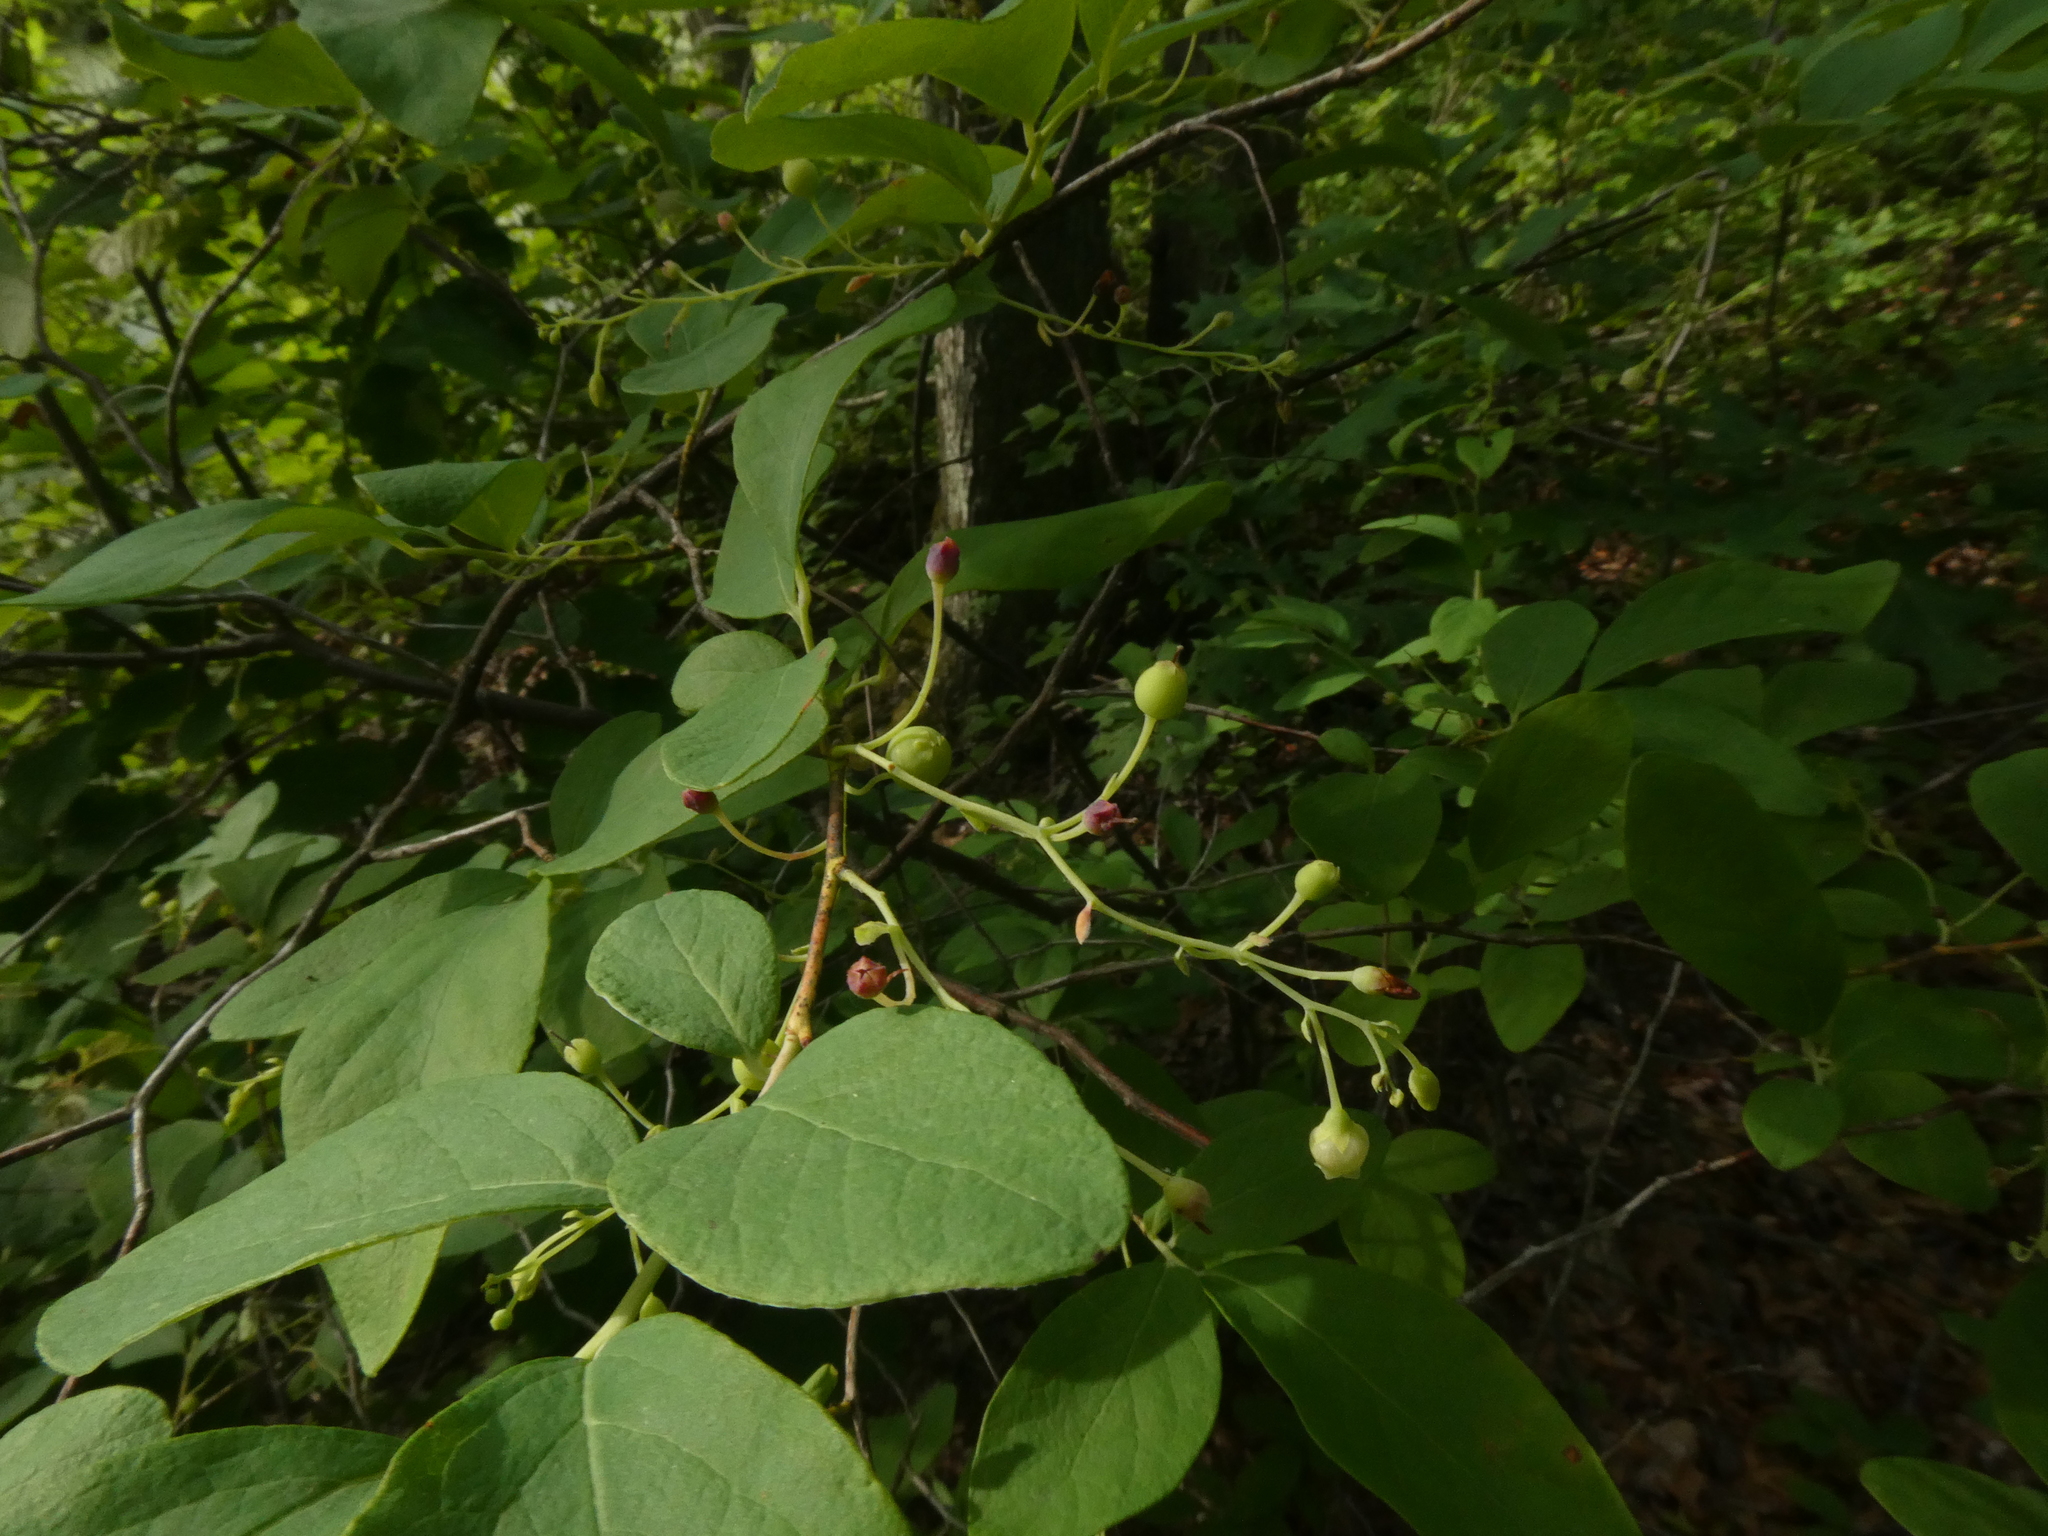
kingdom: Plantae
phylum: Tracheophyta
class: Magnoliopsida
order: Ericales
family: Ericaceae
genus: Gaylussacia
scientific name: Gaylussacia frondosa
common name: Dangleberry
